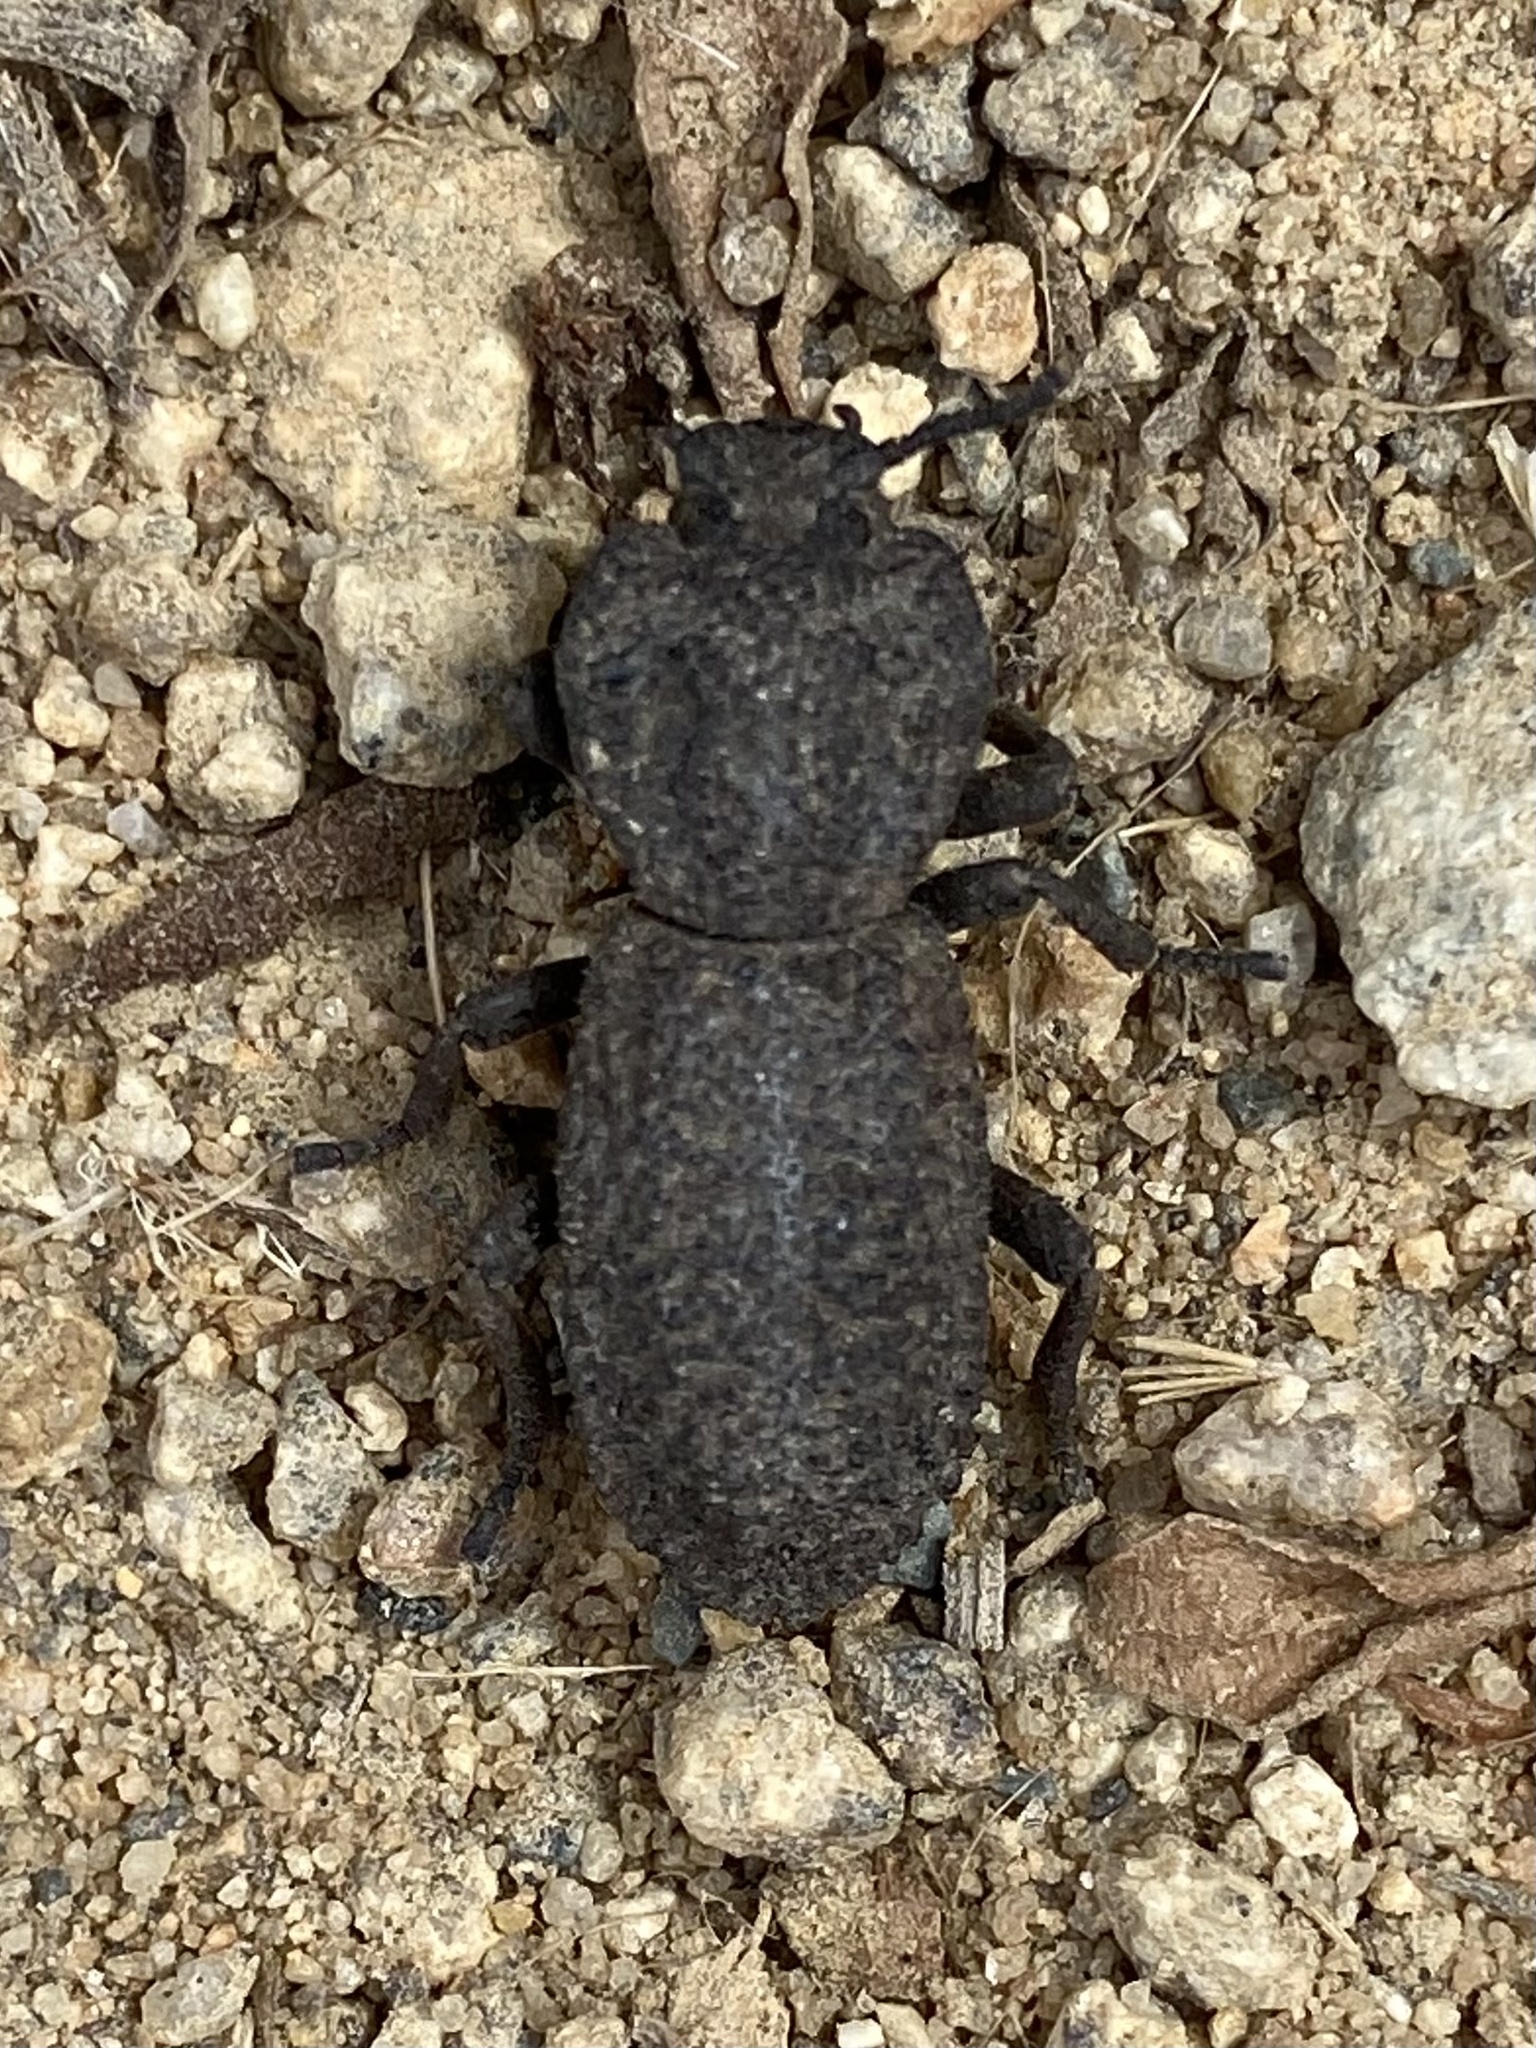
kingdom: Animalia
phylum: Arthropoda
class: Insecta
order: Coleoptera
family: Zopheridae
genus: Phloeodes
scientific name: Phloeodes diabolicus
